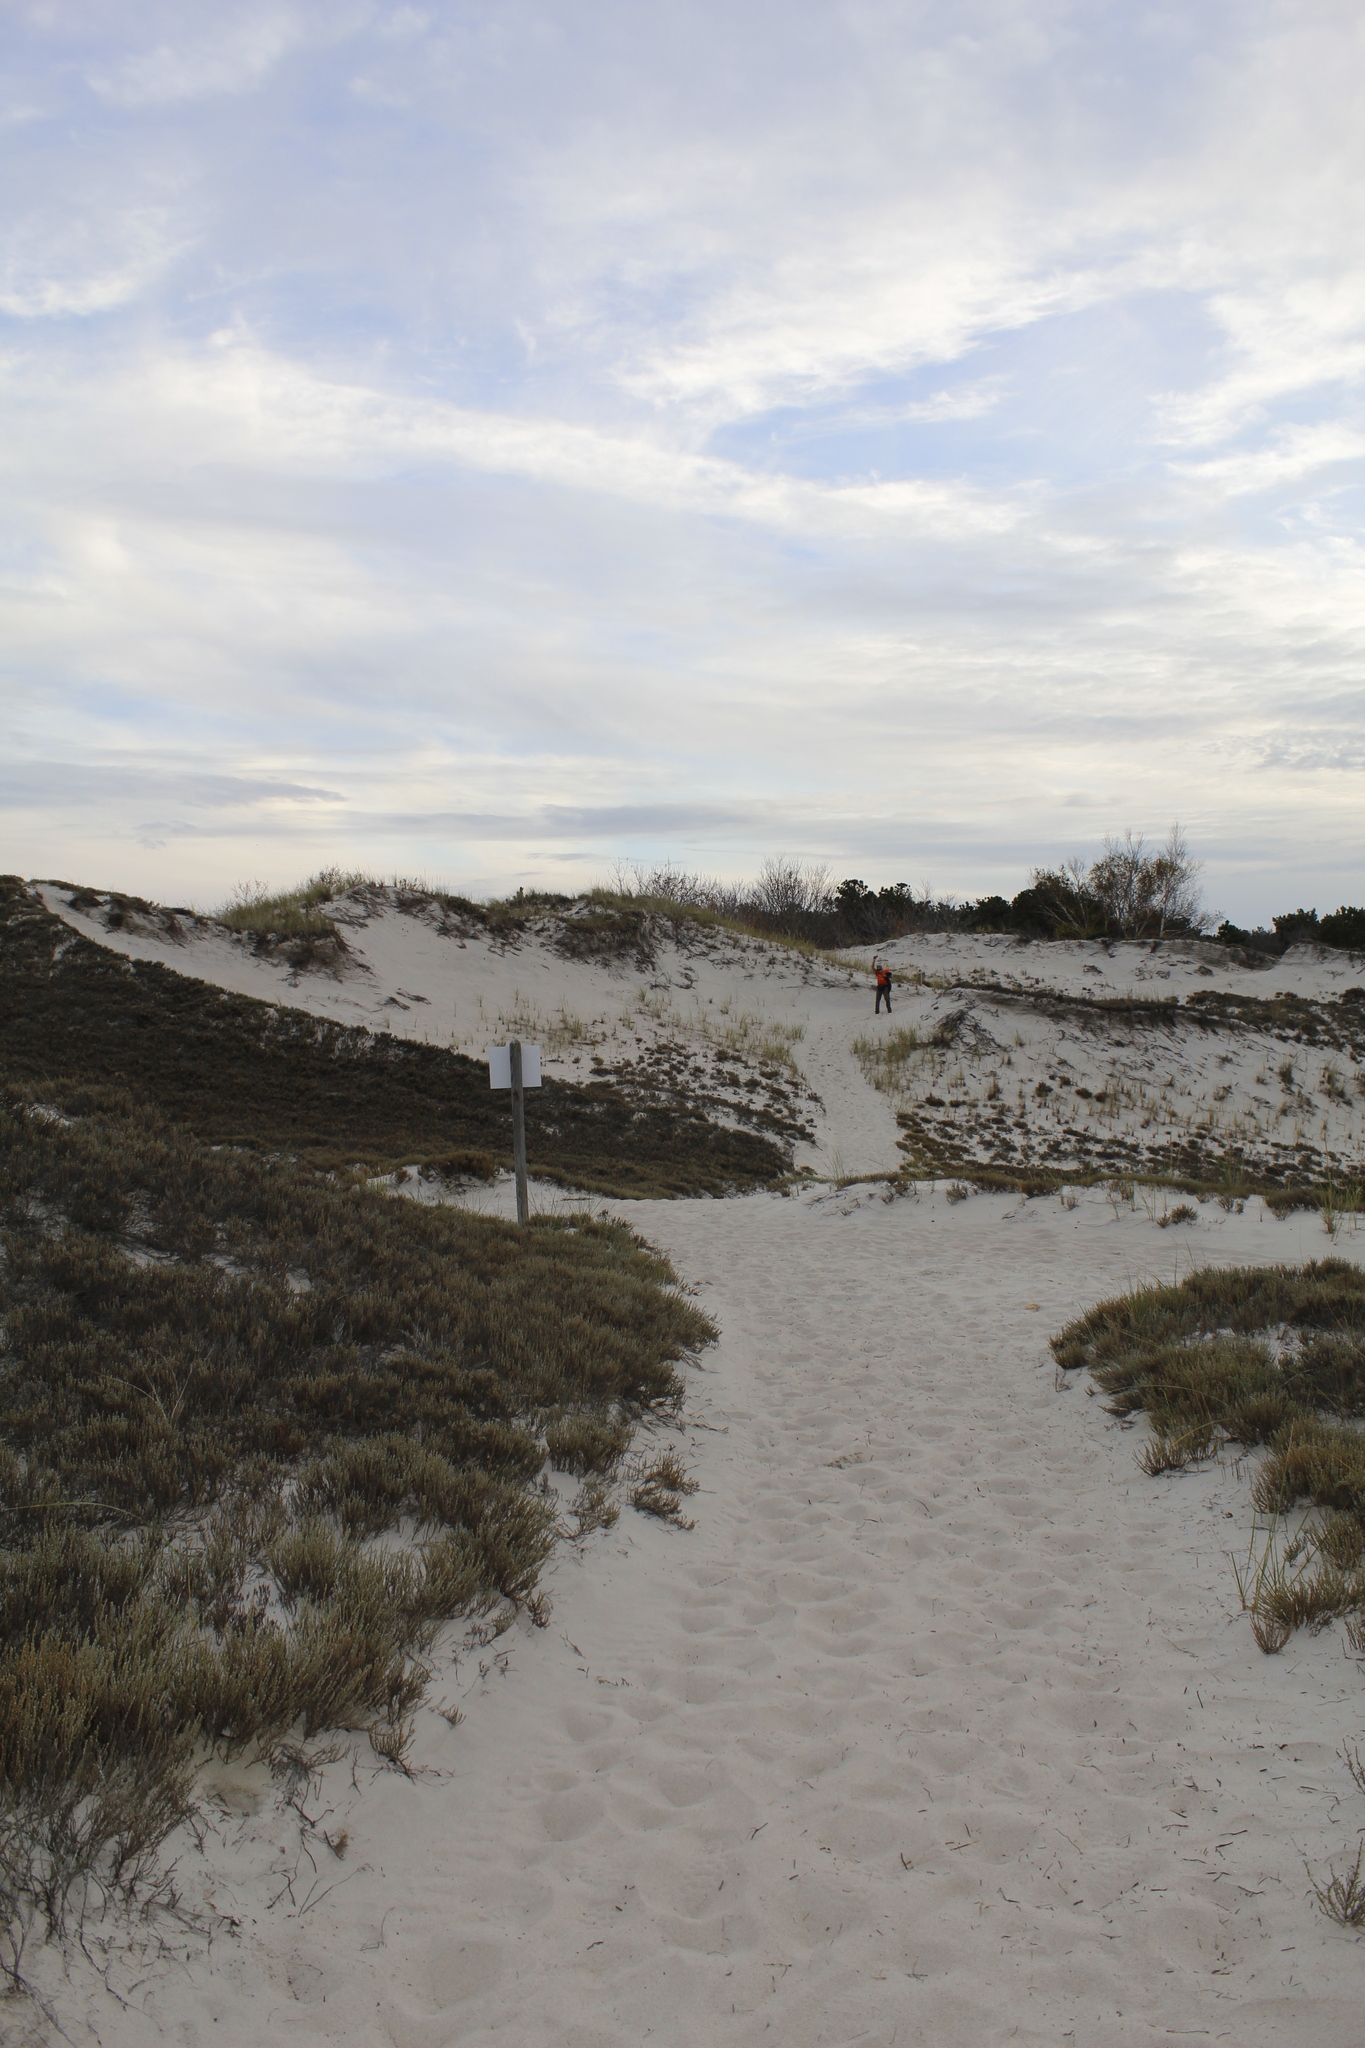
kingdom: Plantae
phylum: Tracheophyta
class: Magnoliopsida
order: Malvales
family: Cistaceae
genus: Hudsonia
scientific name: Hudsonia tomentosa
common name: Beach-heath
